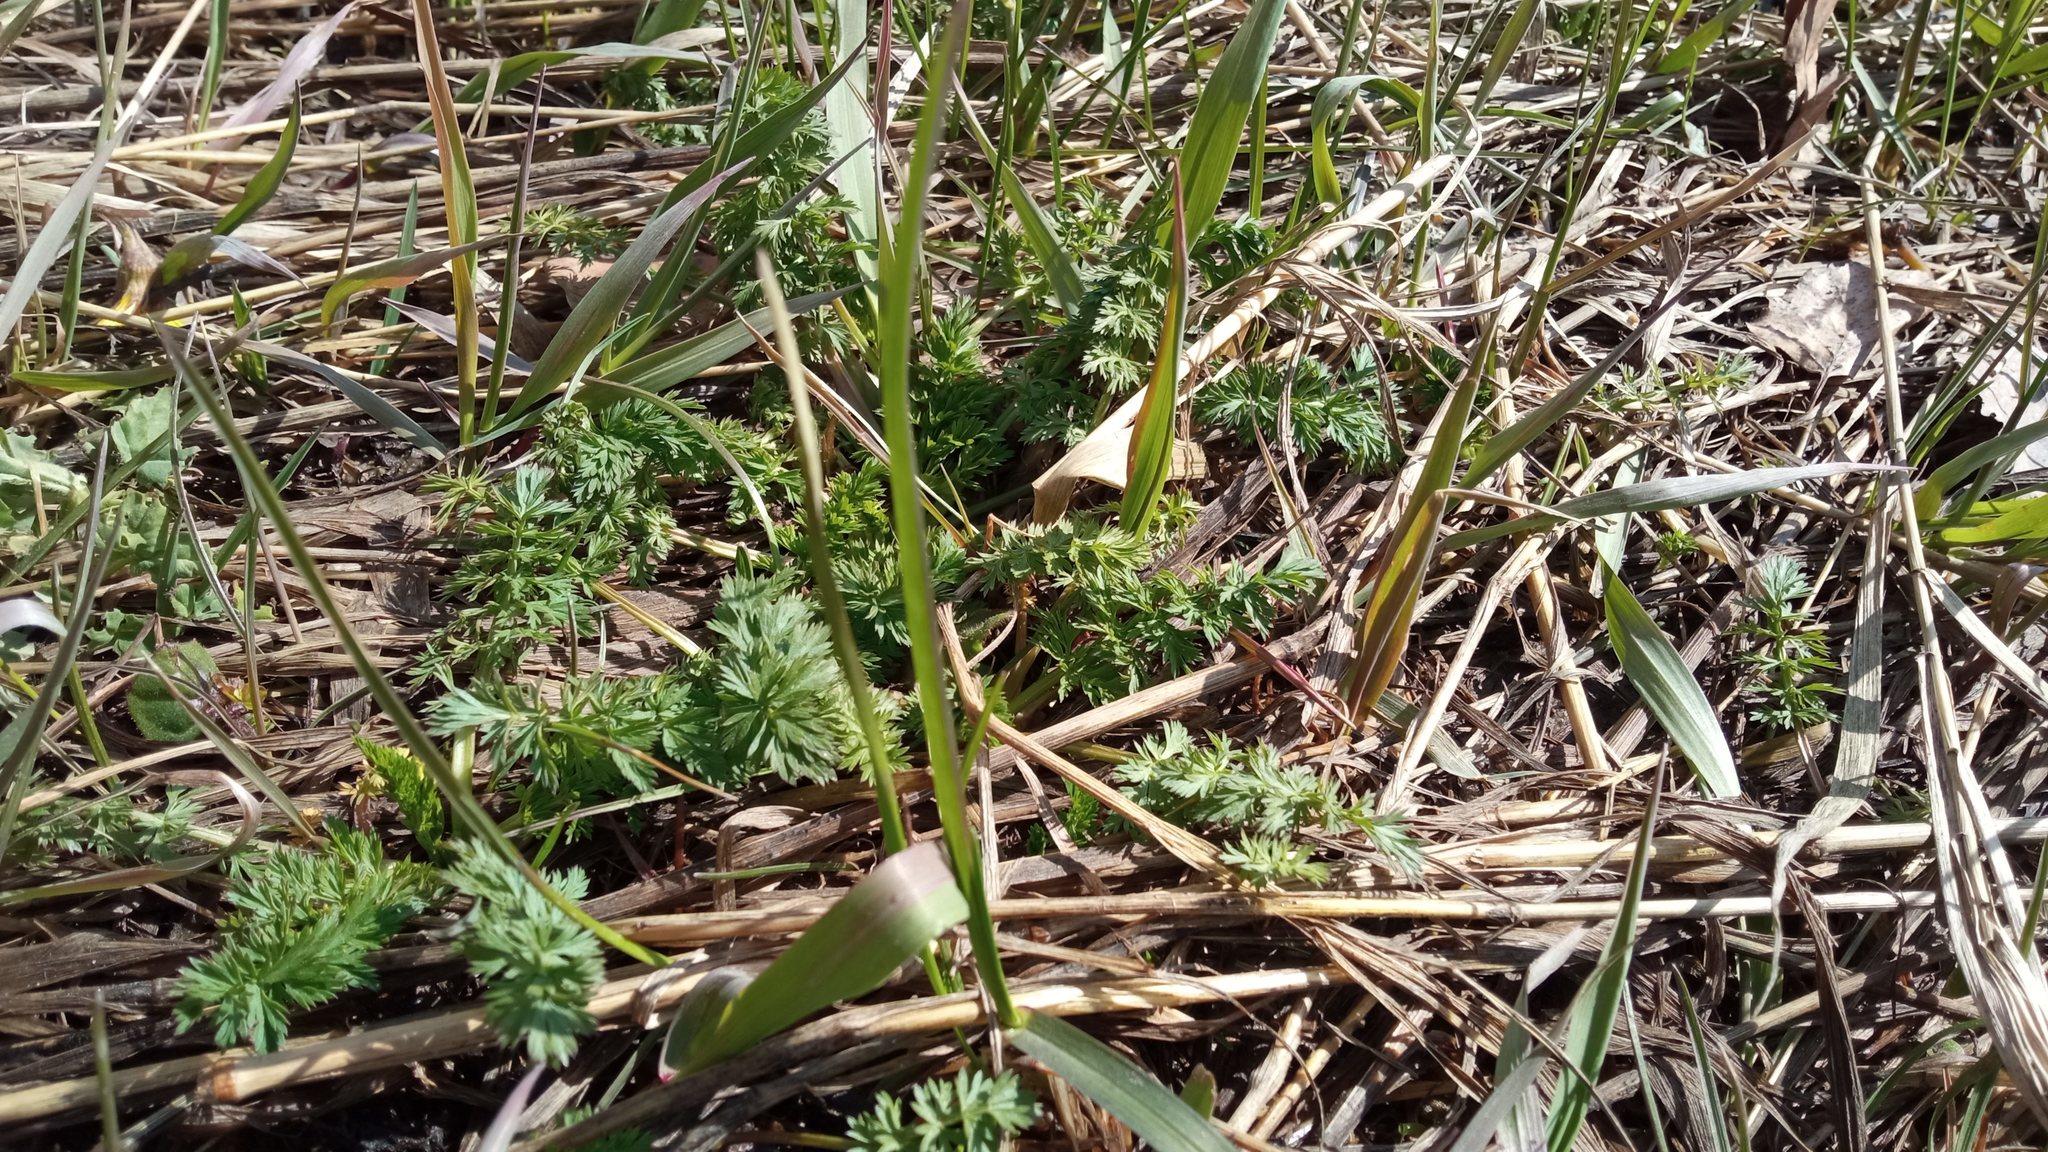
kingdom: Plantae
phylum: Tracheophyta
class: Magnoliopsida
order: Apiales
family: Apiaceae
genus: Carum
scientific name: Carum carvi
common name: Caraway
